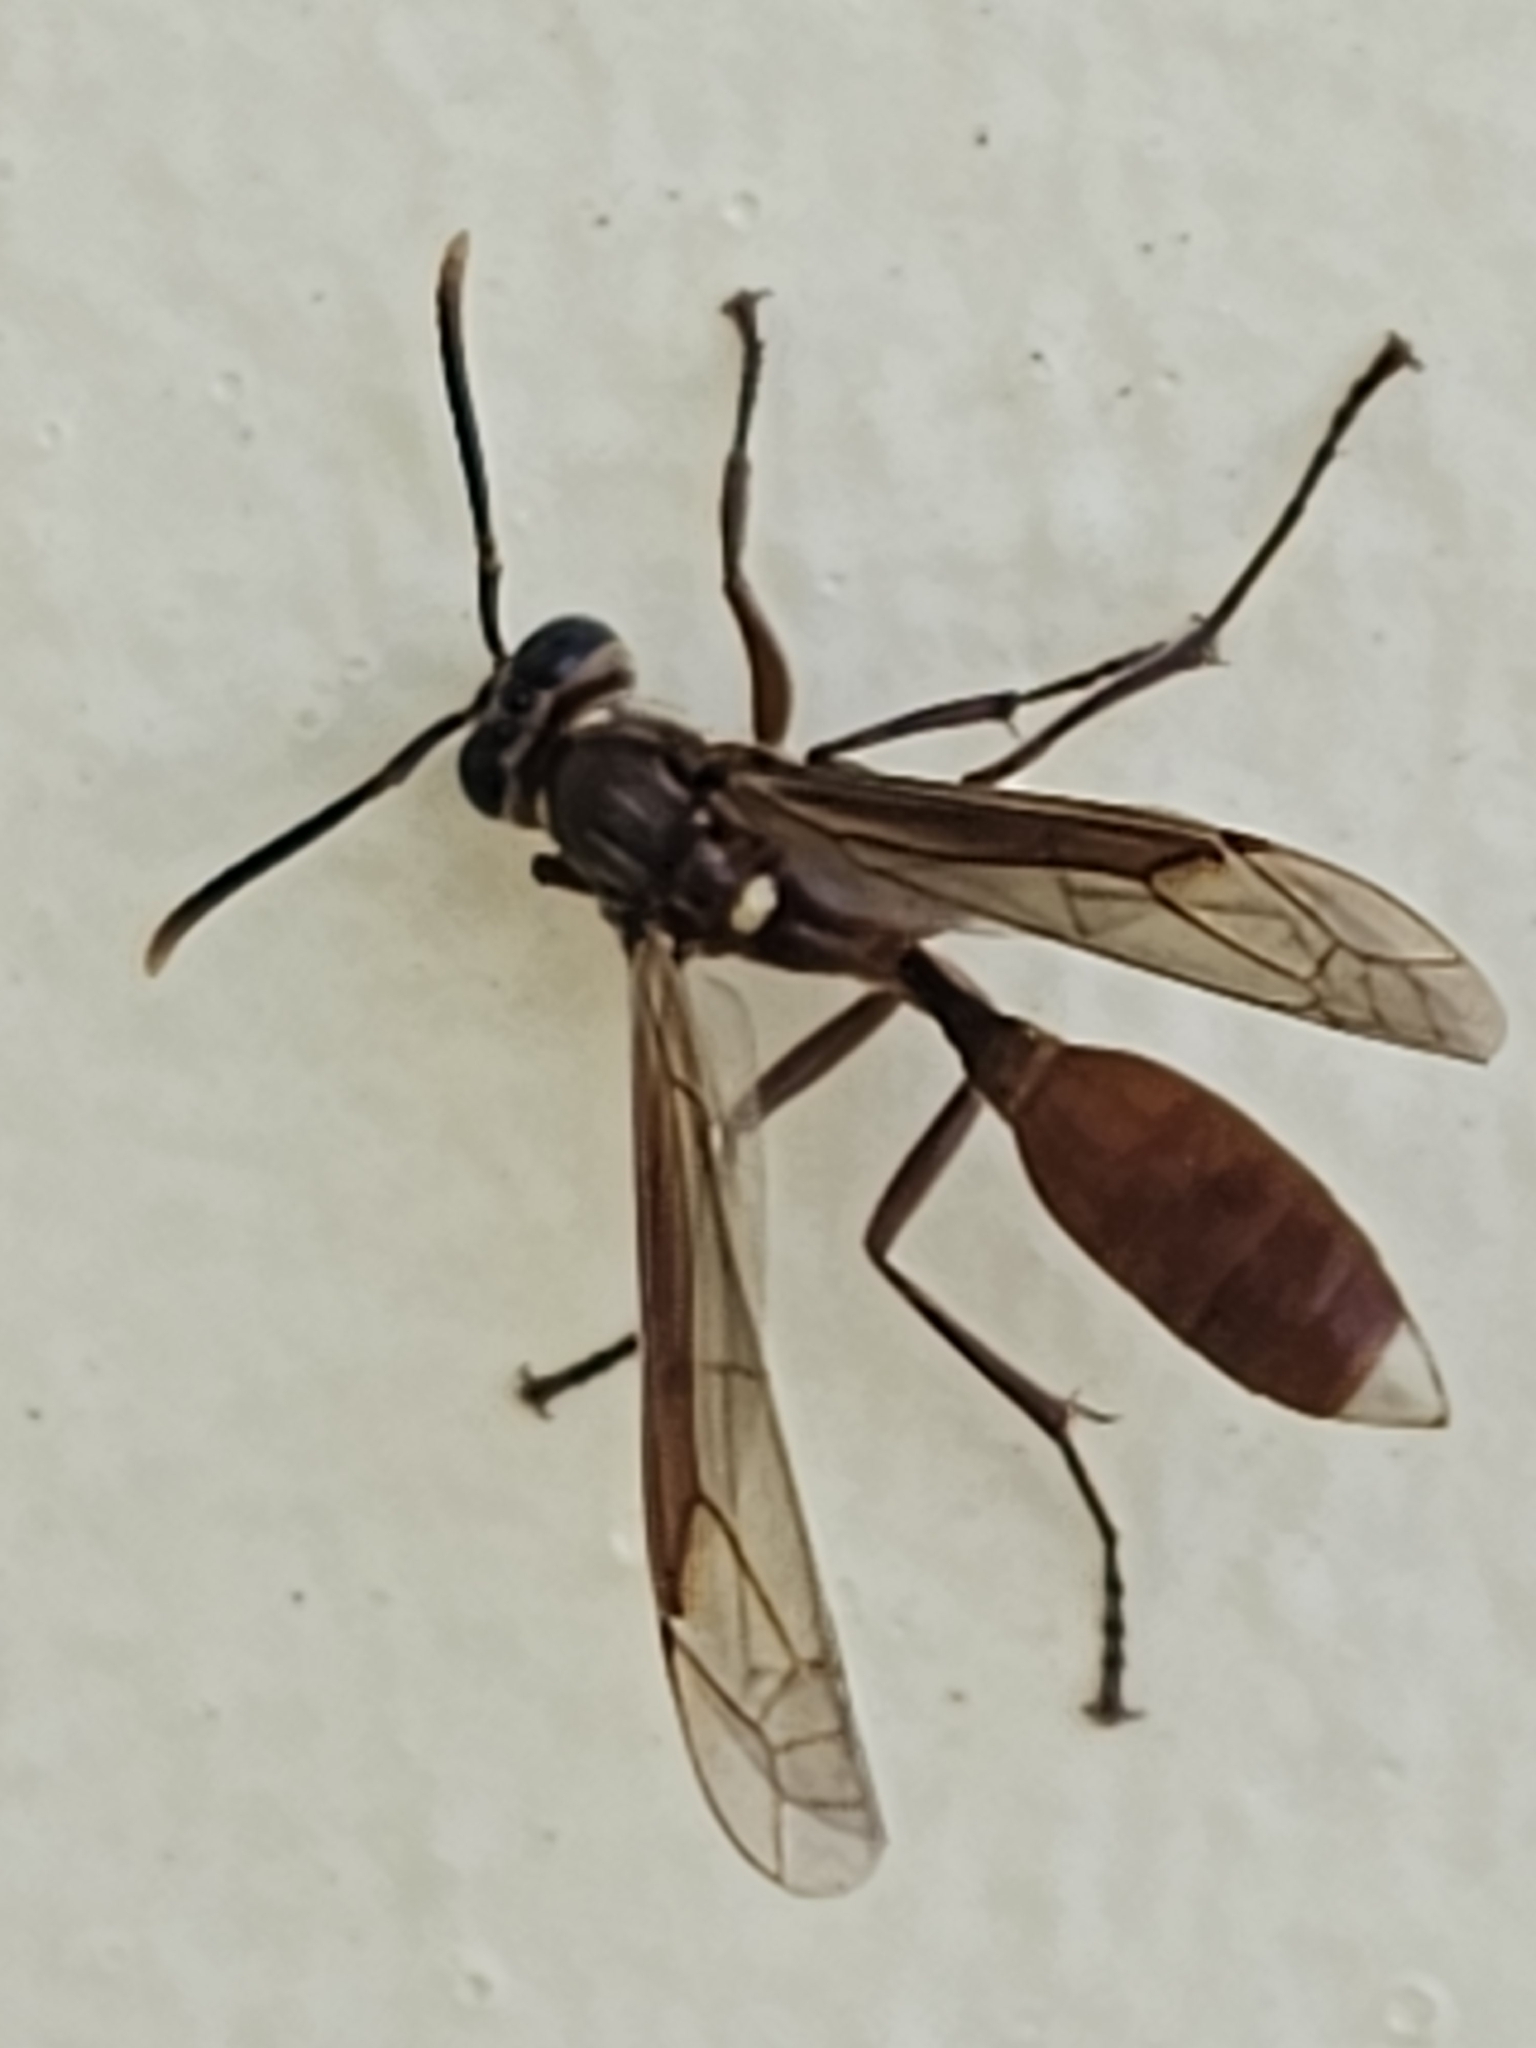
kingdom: Animalia
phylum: Arthropoda
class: Insecta
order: Hymenoptera
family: Vespidae
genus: Apoica
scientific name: Apoica pallida
